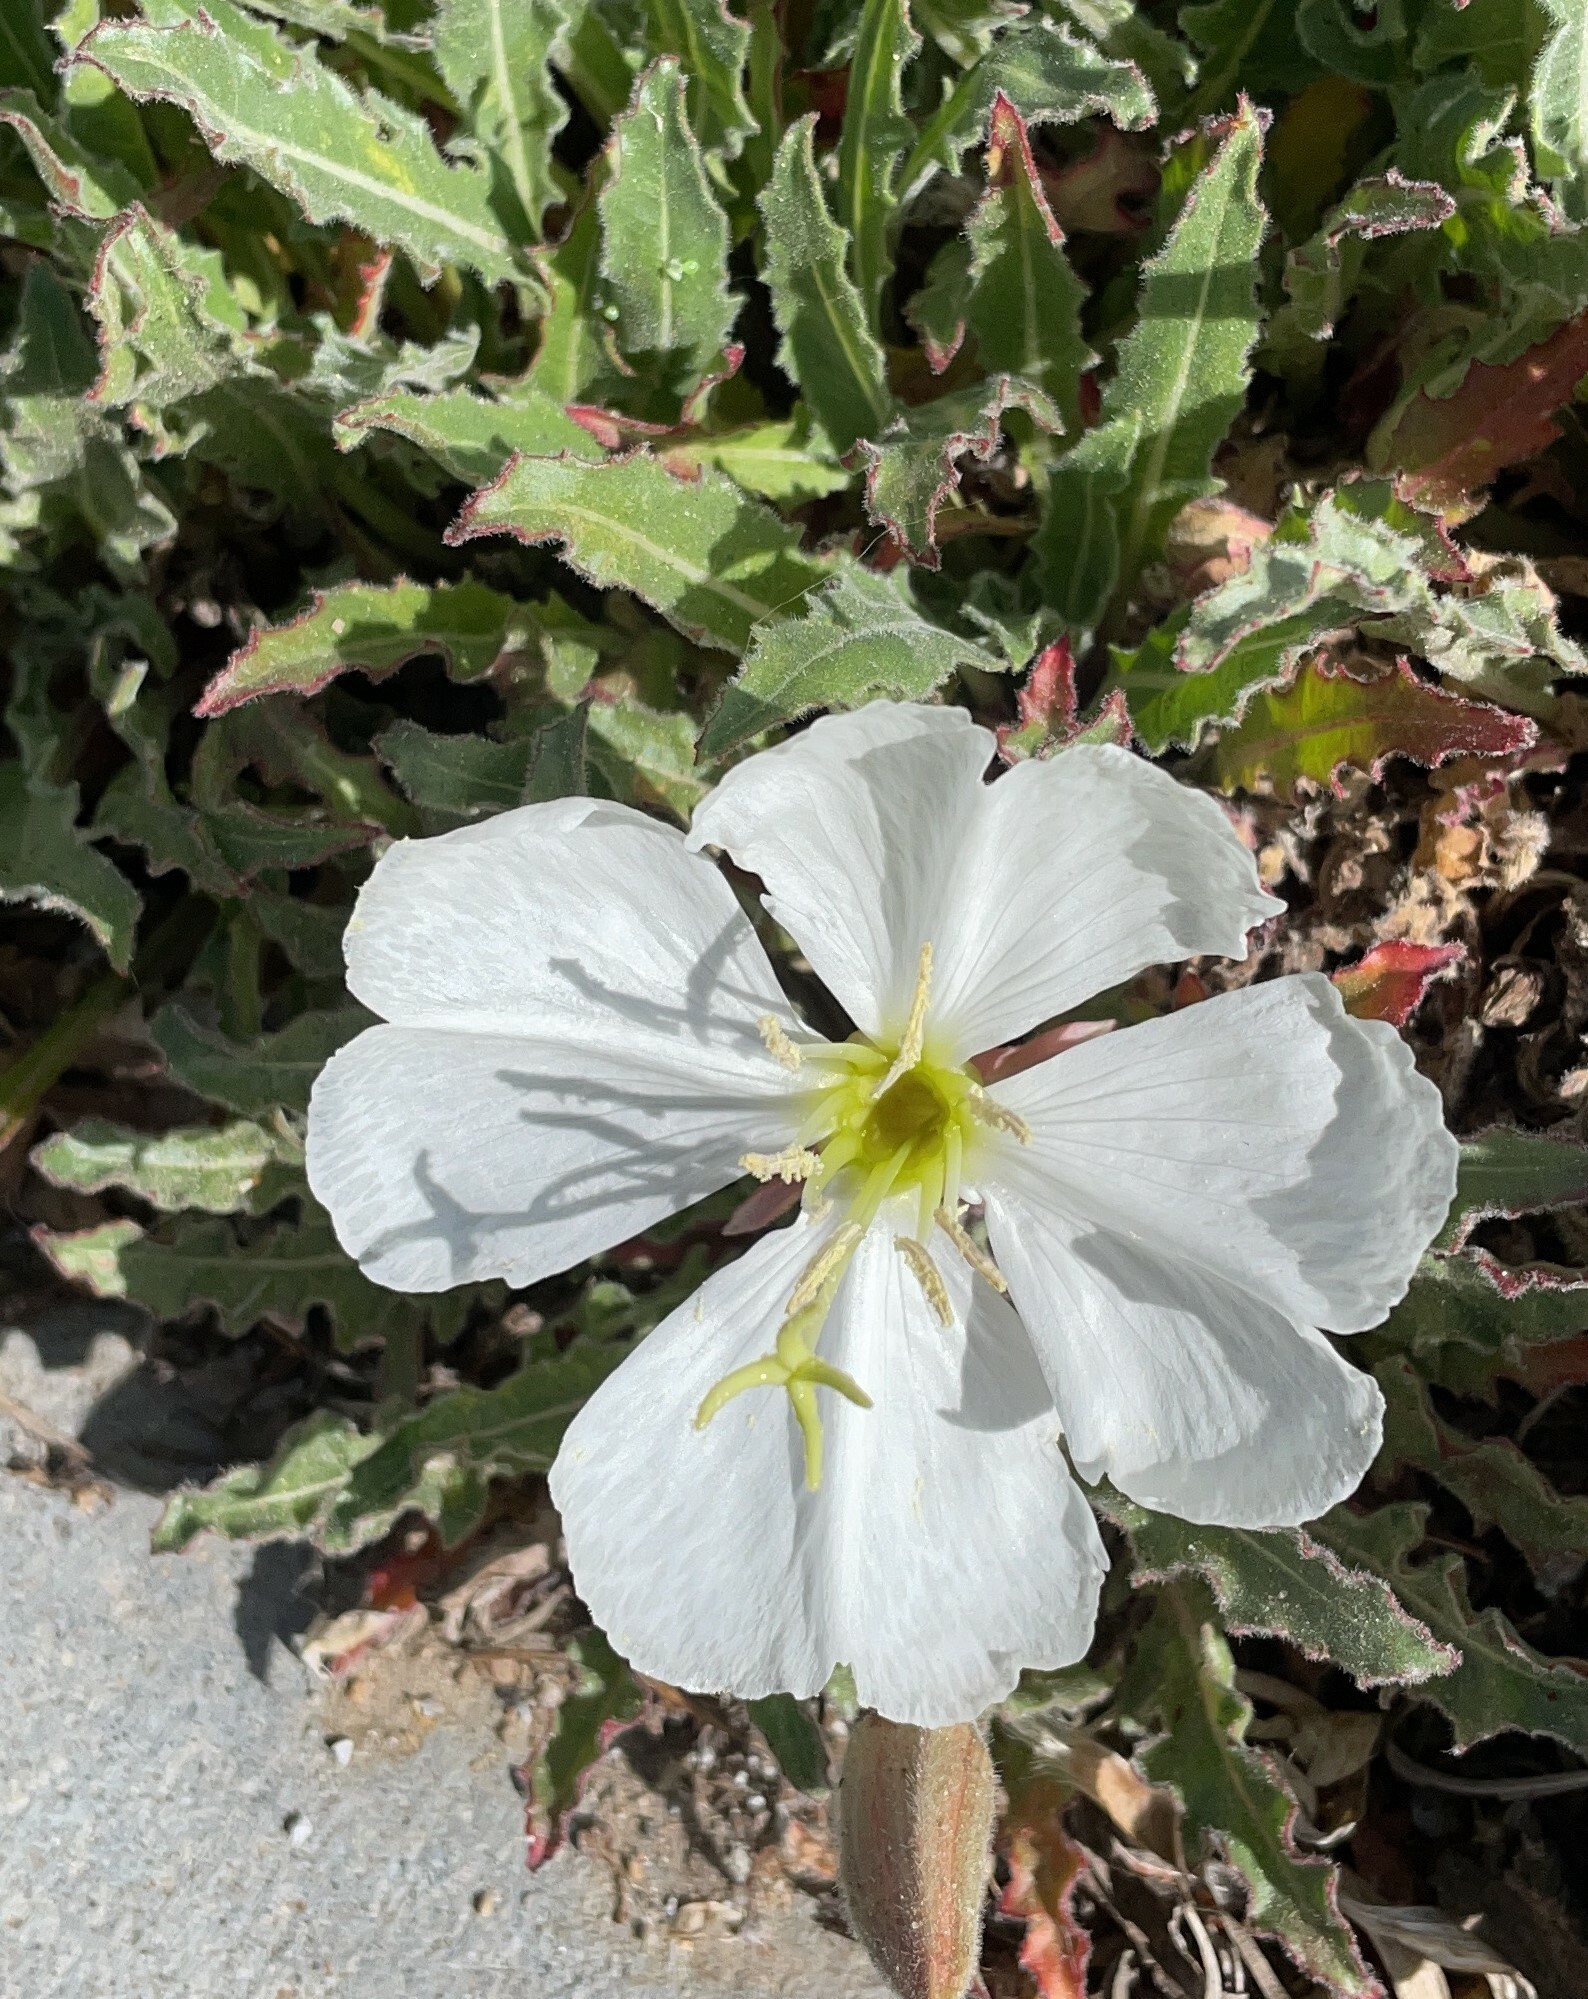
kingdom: Plantae
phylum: Tracheophyta
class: Magnoliopsida
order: Myrtales
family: Onagraceae
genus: Oenothera
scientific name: Oenothera cespitosa
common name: Tufted evening-primrose
